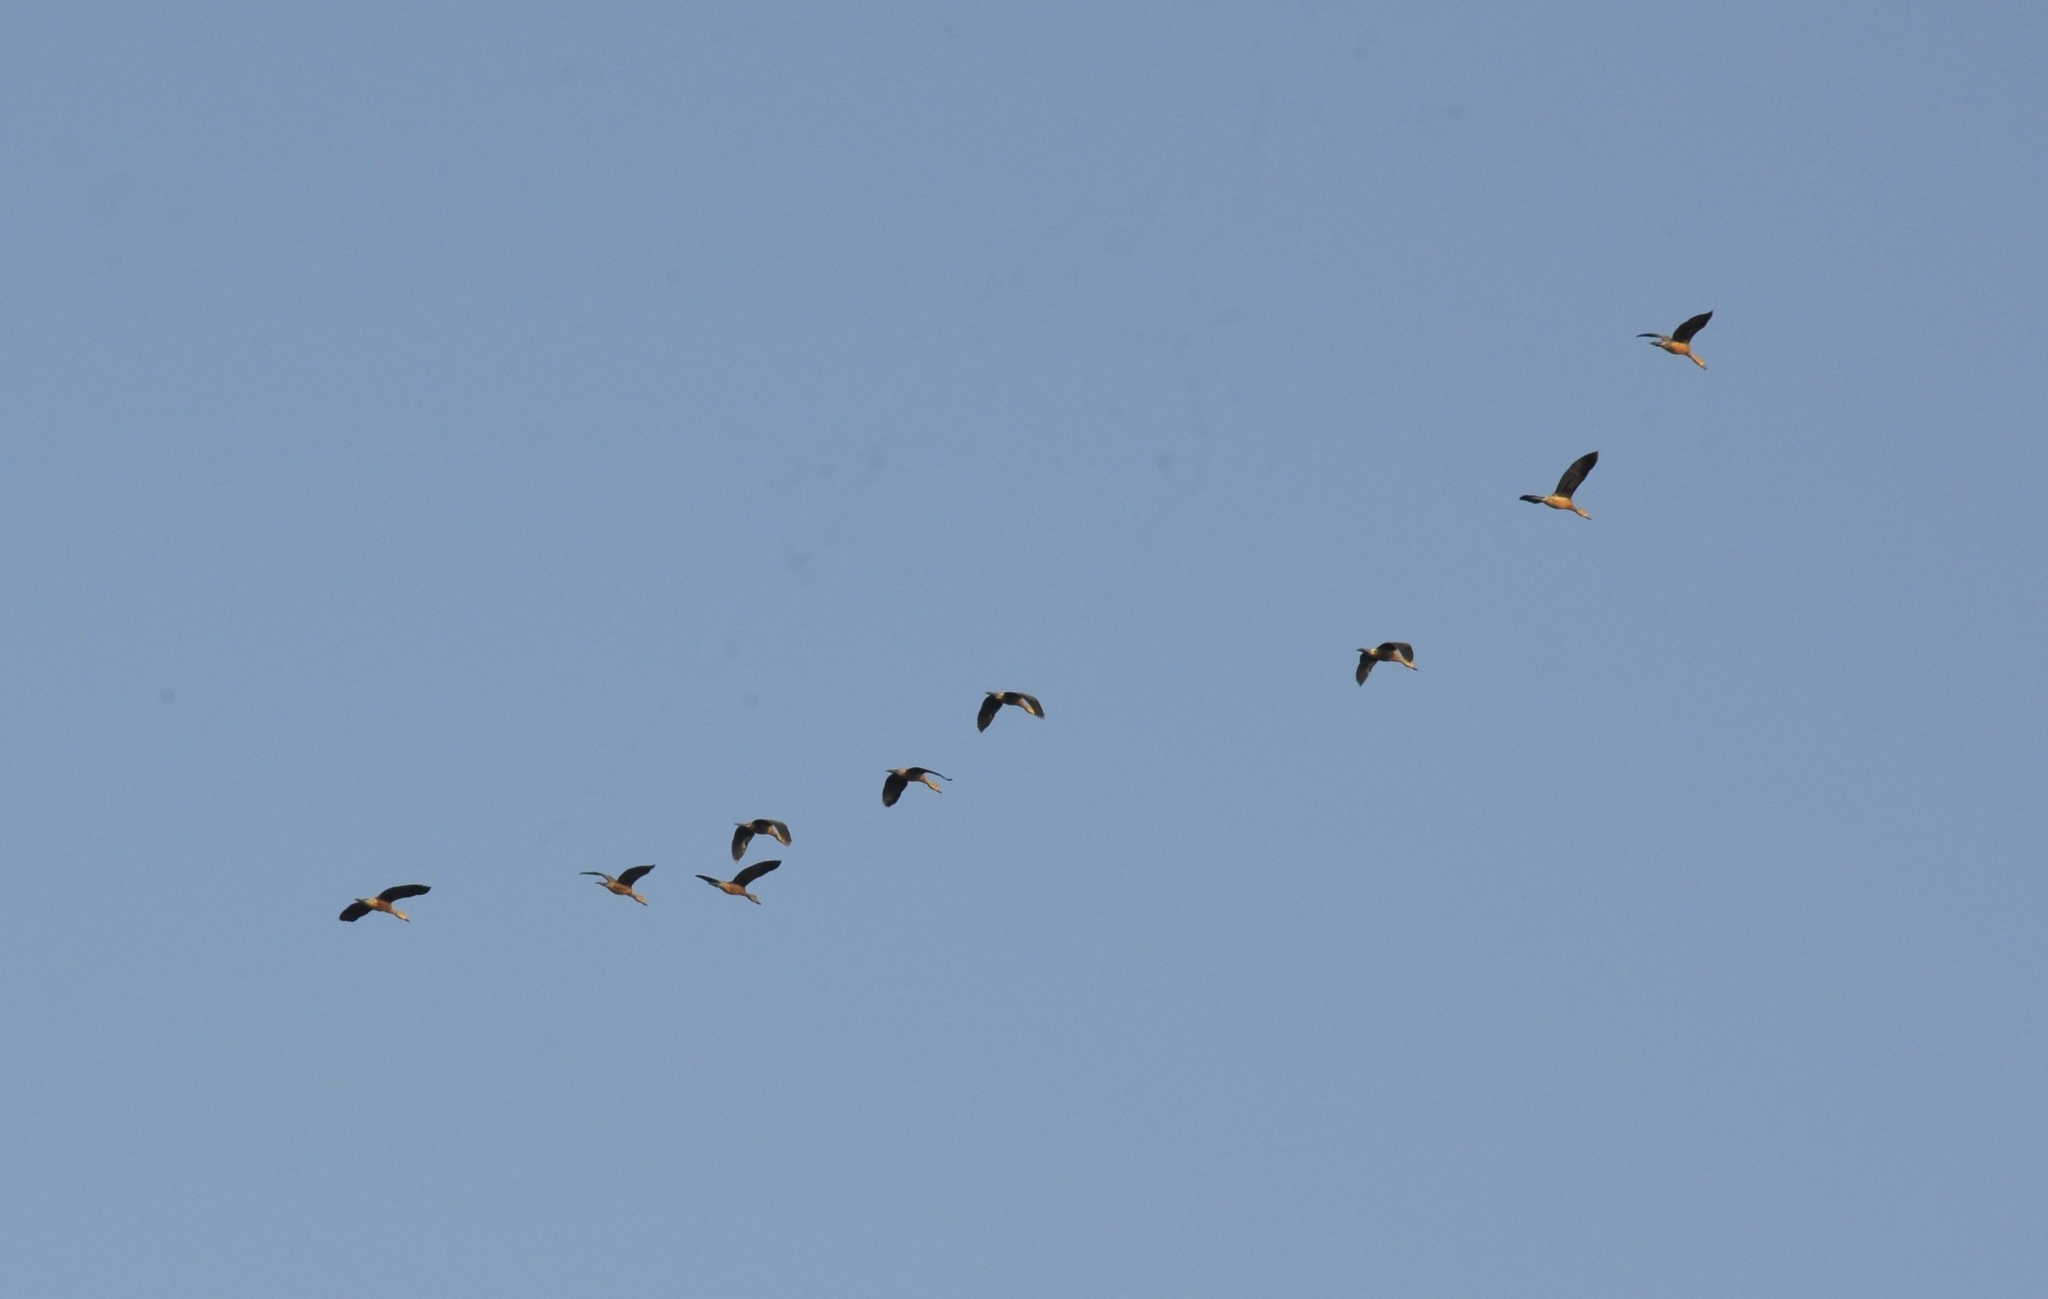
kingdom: Animalia
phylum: Chordata
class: Aves
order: Anseriformes
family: Anatidae
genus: Dendrocygna
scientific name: Dendrocygna javanica
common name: Lesser whistling-duck
